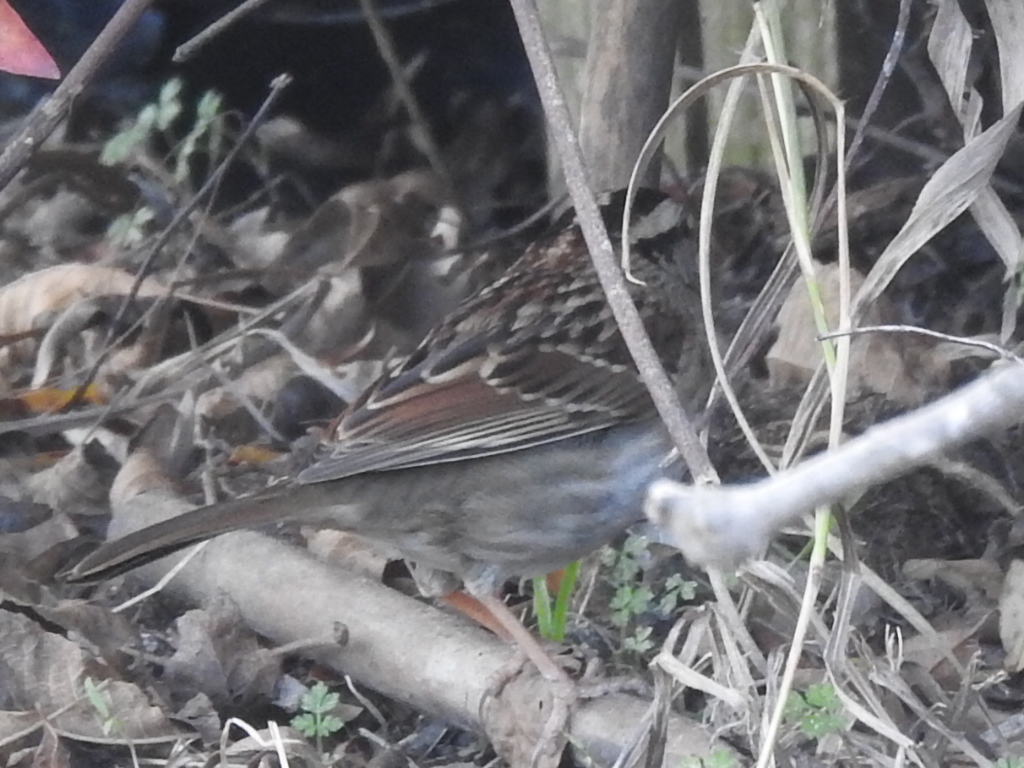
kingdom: Animalia
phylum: Chordata
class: Aves
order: Passeriformes
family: Passerellidae
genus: Zonotrichia
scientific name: Zonotrichia albicollis
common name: White-throated sparrow
